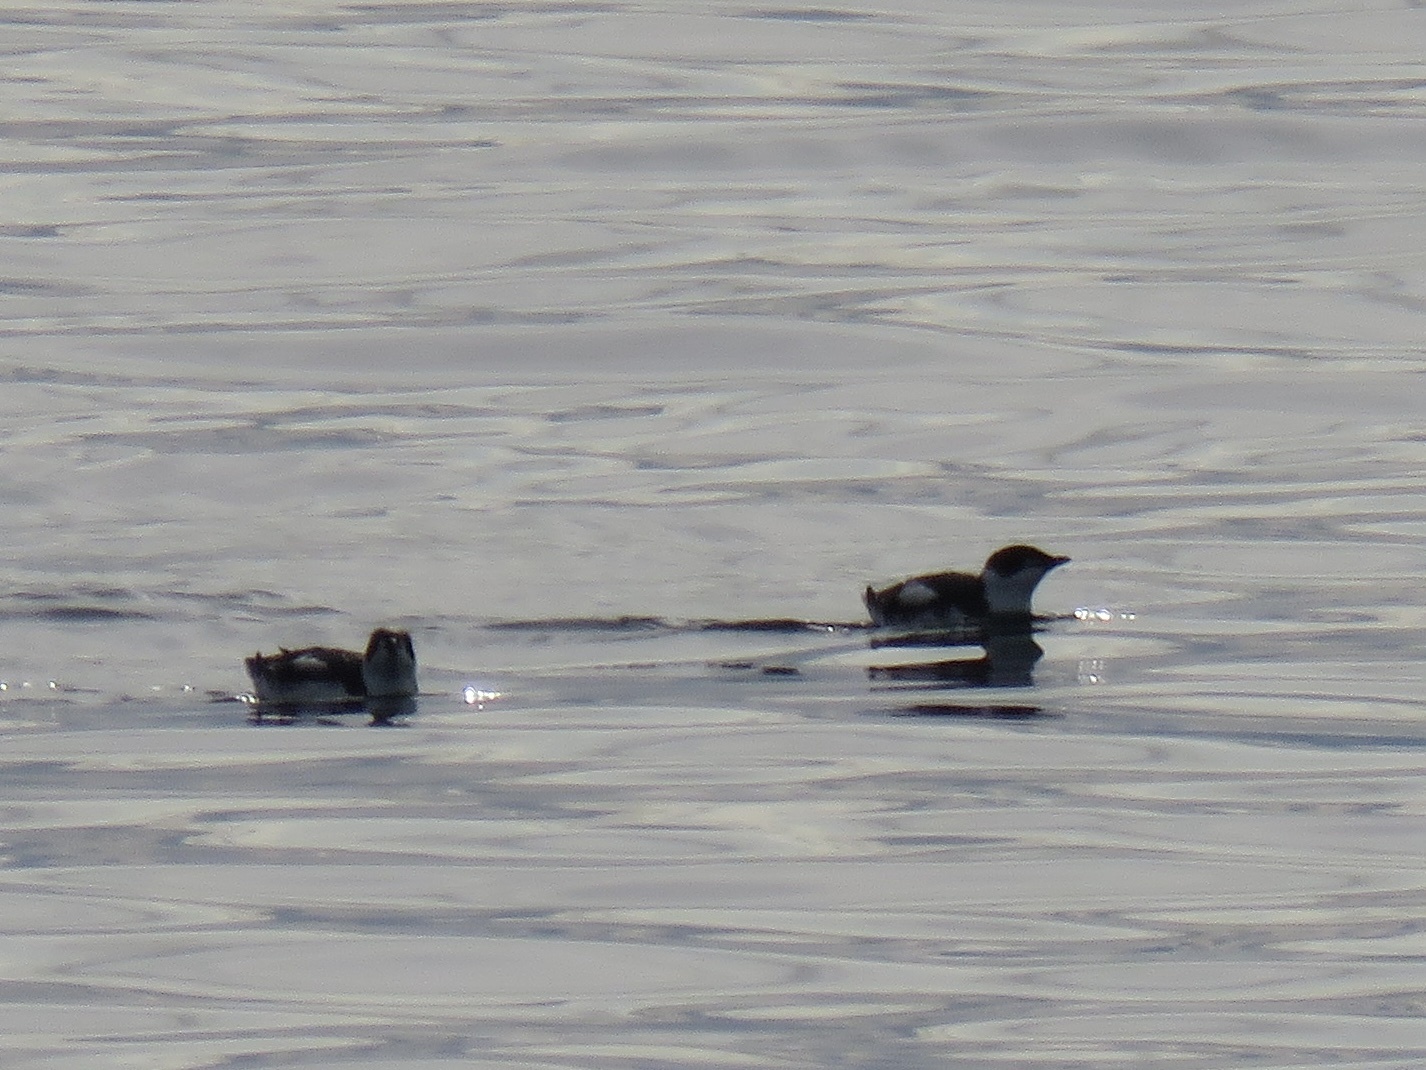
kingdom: Animalia
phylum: Chordata
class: Aves
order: Charadriiformes
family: Alcidae
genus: Brachyramphus
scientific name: Brachyramphus marmoratus
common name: Marbled murrelet
